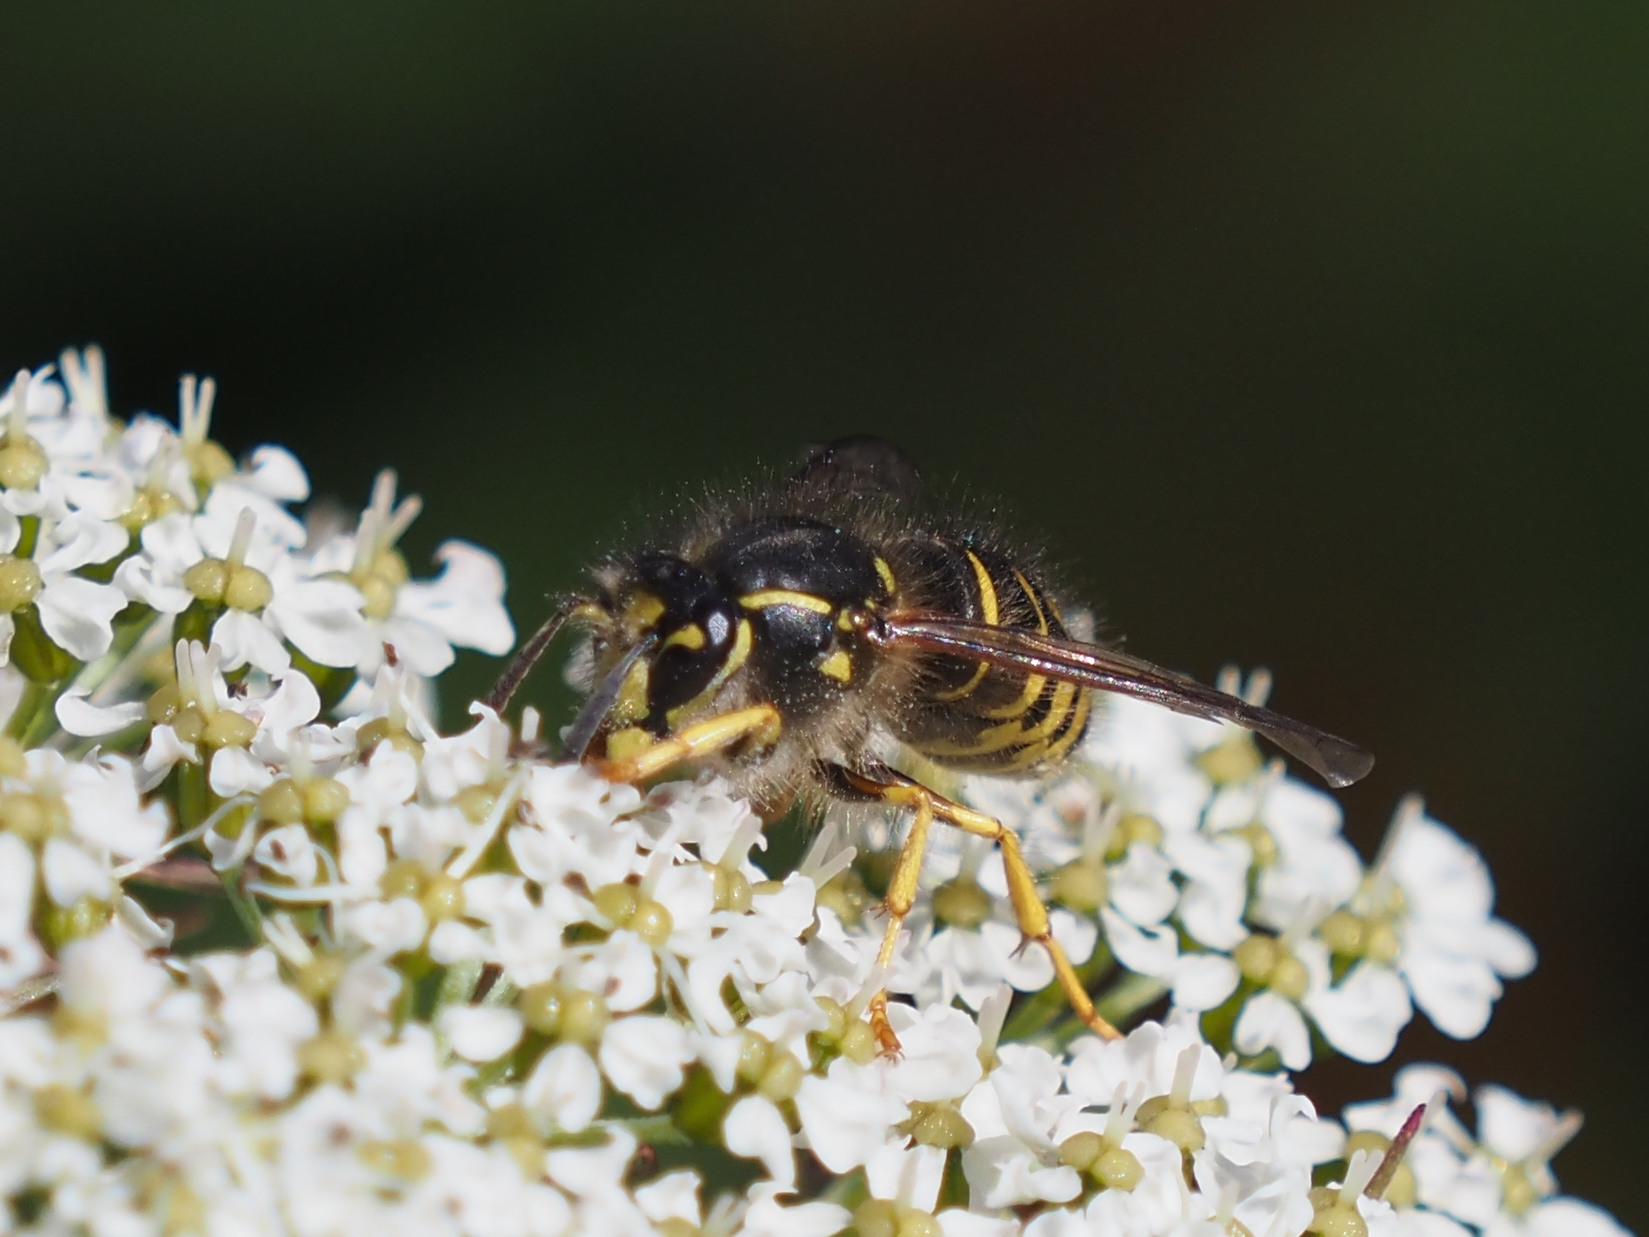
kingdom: Animalia
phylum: Arthropoda
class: Insecta
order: Hymenoptera
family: Vespidae
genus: Dolichovespula
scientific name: Dolichovespula arenaria
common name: Aerial yellowjacket
